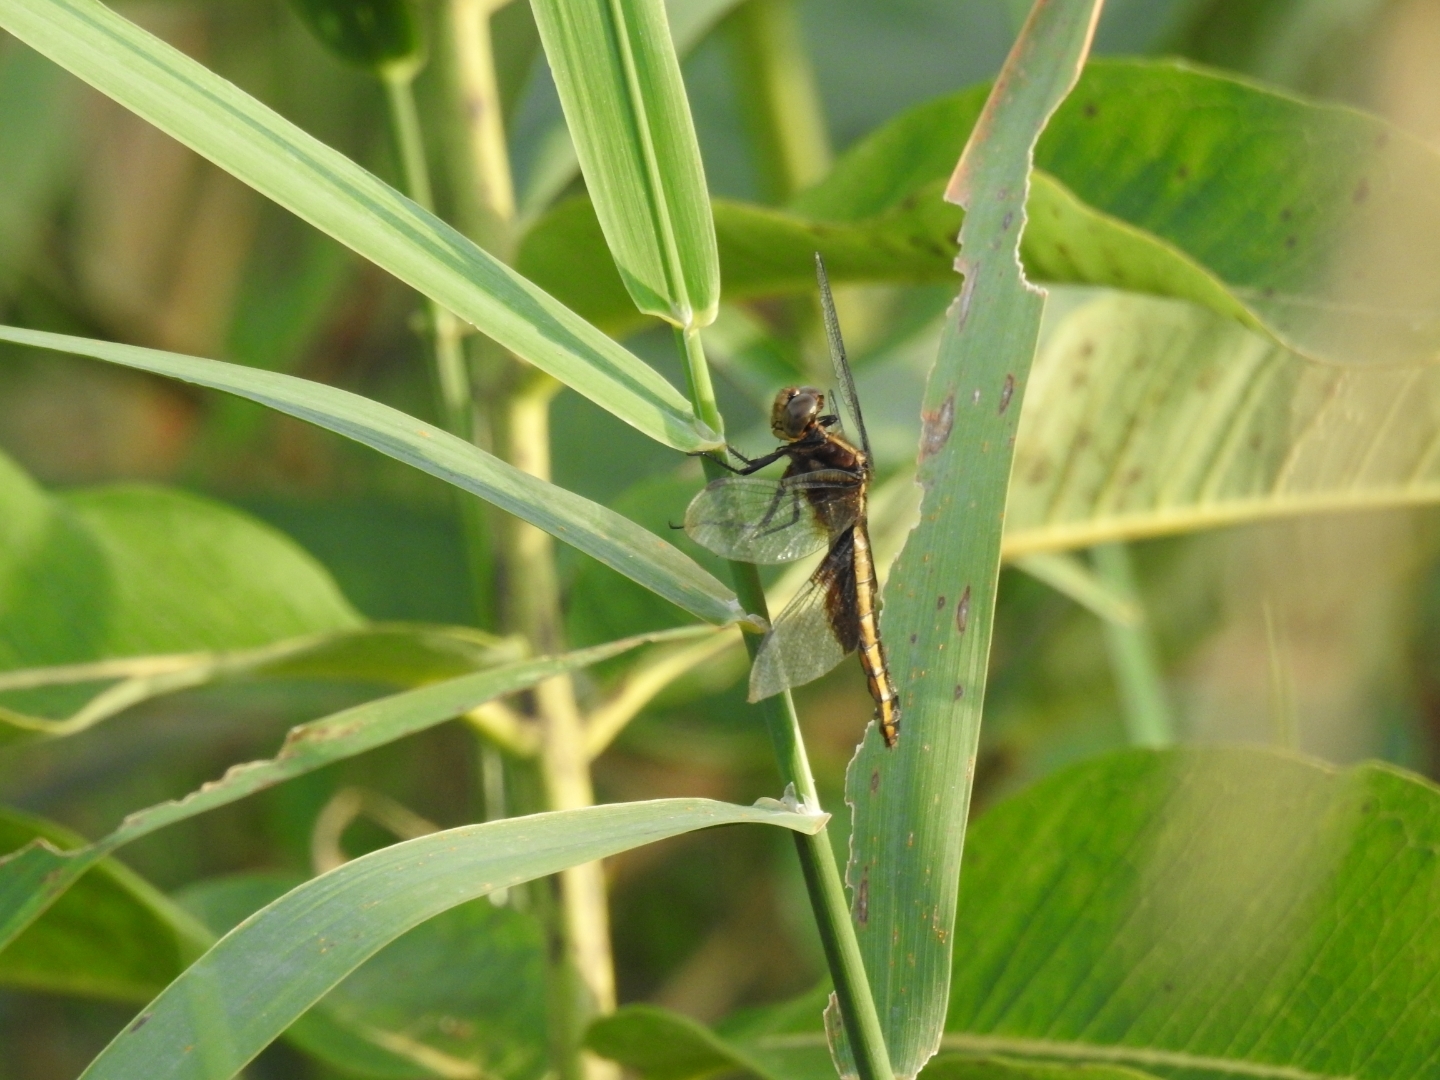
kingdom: Animalia
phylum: Arthropoda
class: Insecta
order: Odonata
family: Libellulidae
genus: Libellula
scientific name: Libellula luctuosa
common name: Widow skimmer
